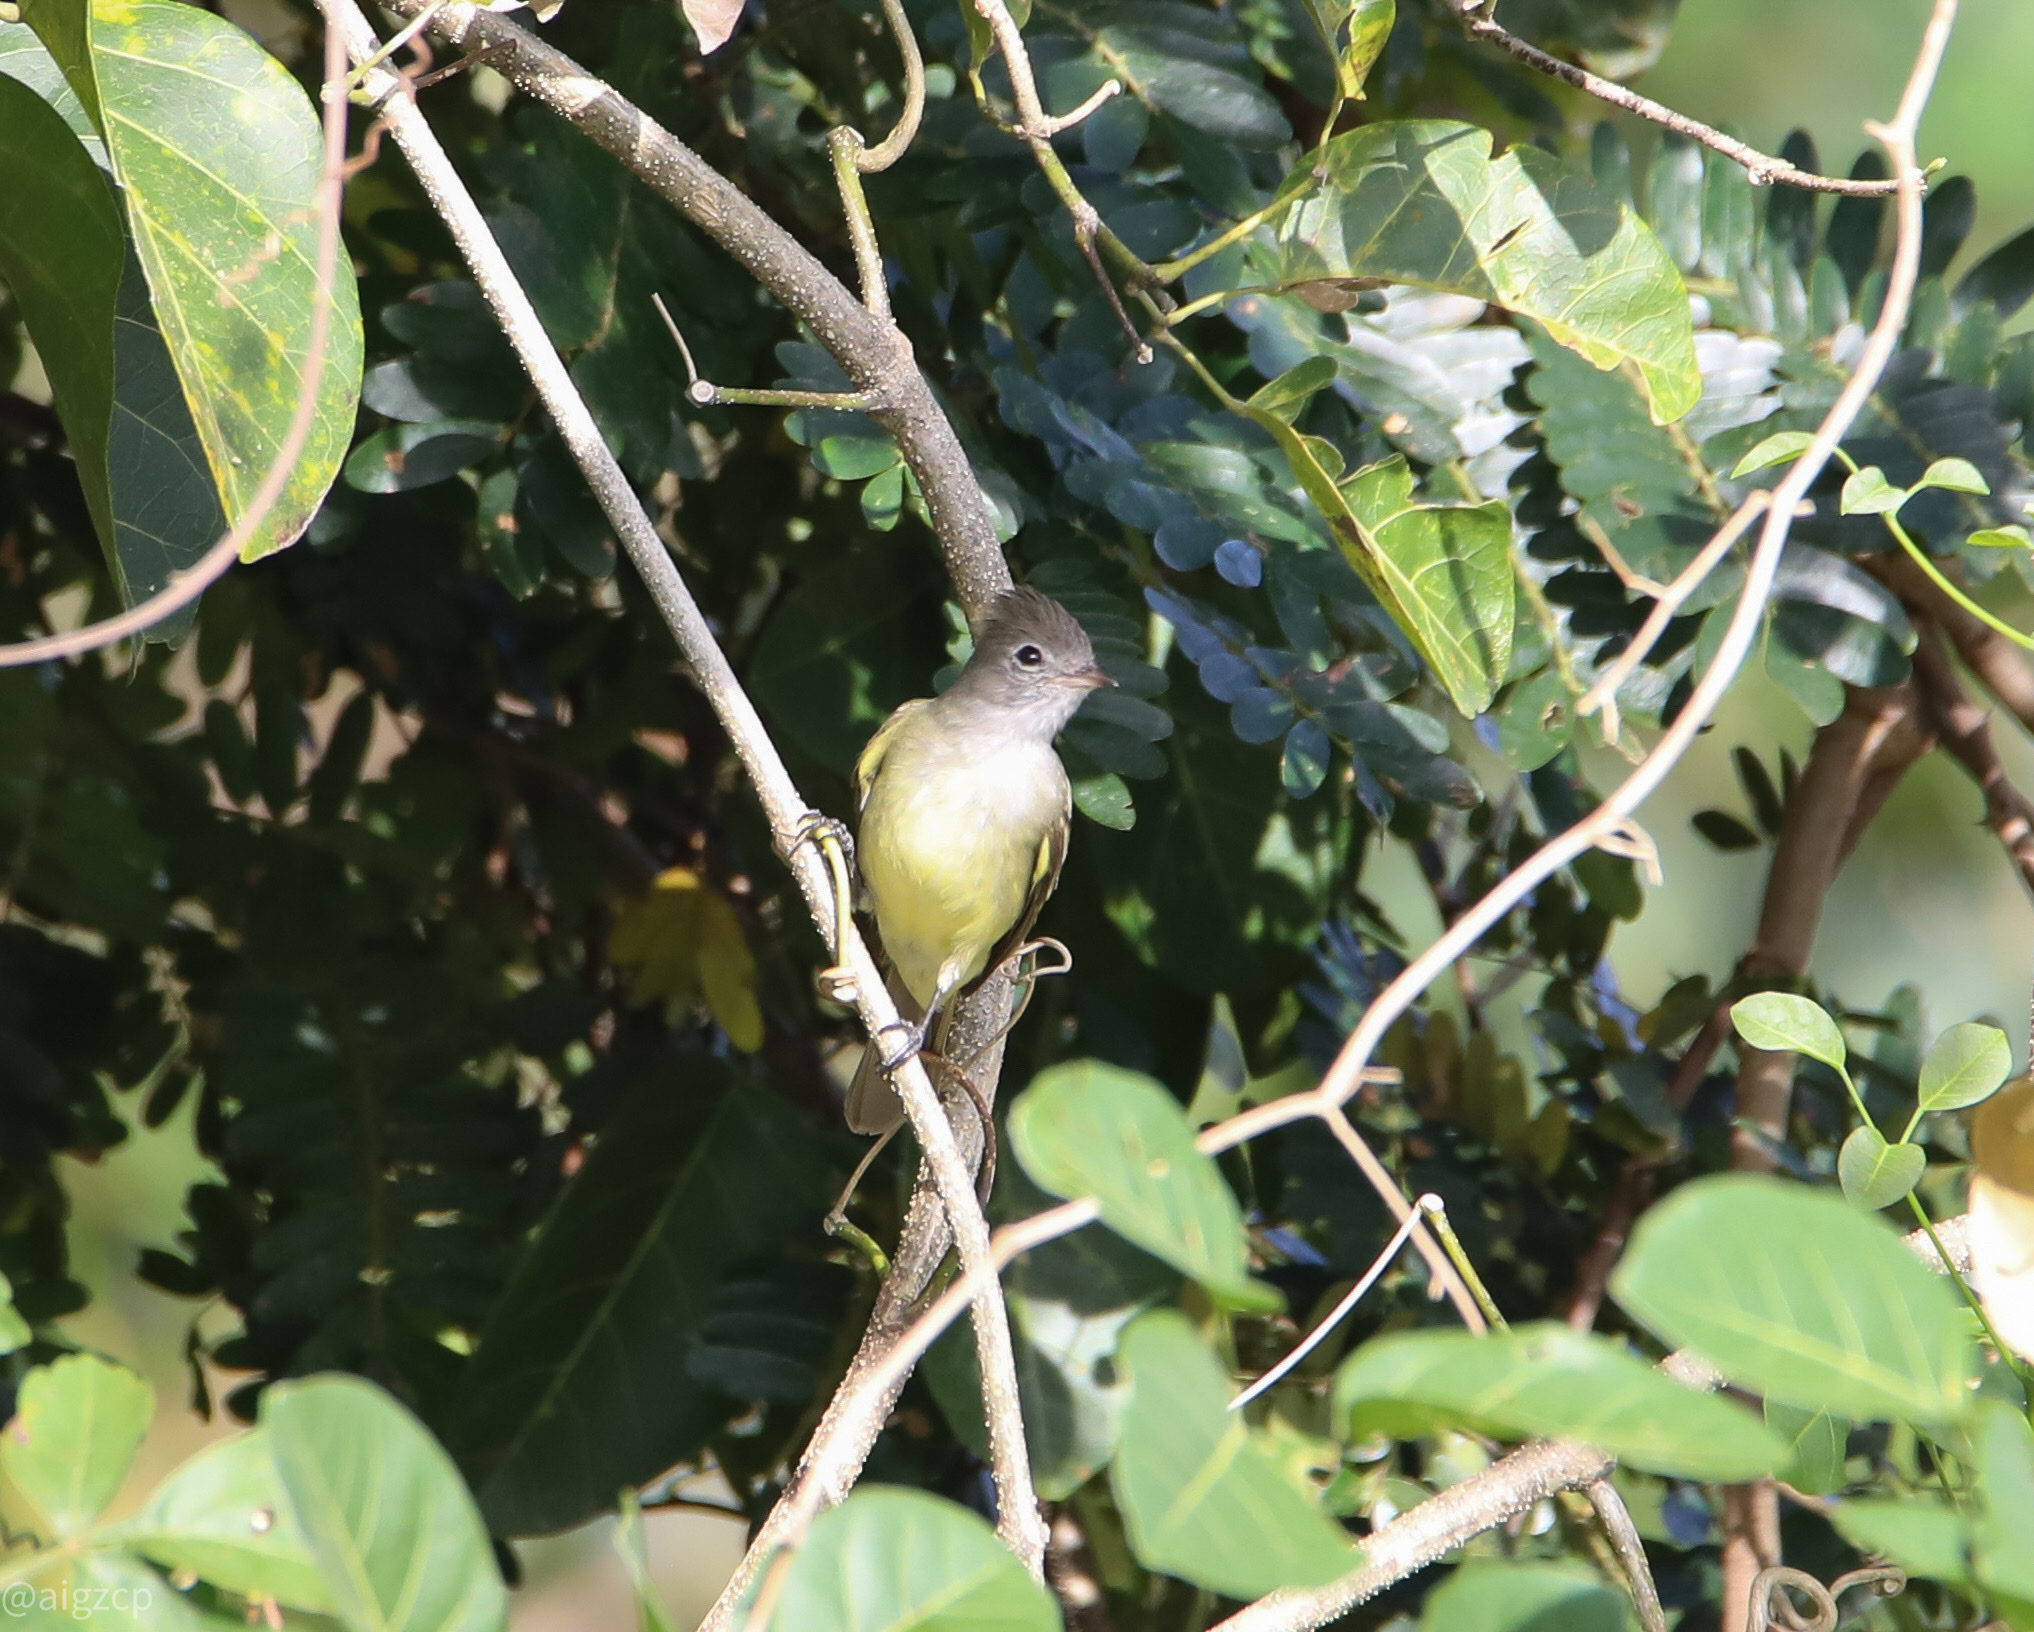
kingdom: Animalia
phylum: Chordata
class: Aves
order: Passeriformes
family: Tyrannidae
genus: Elaenia
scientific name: Elaenia flavogaster
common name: Yellow-bellied elaenia
